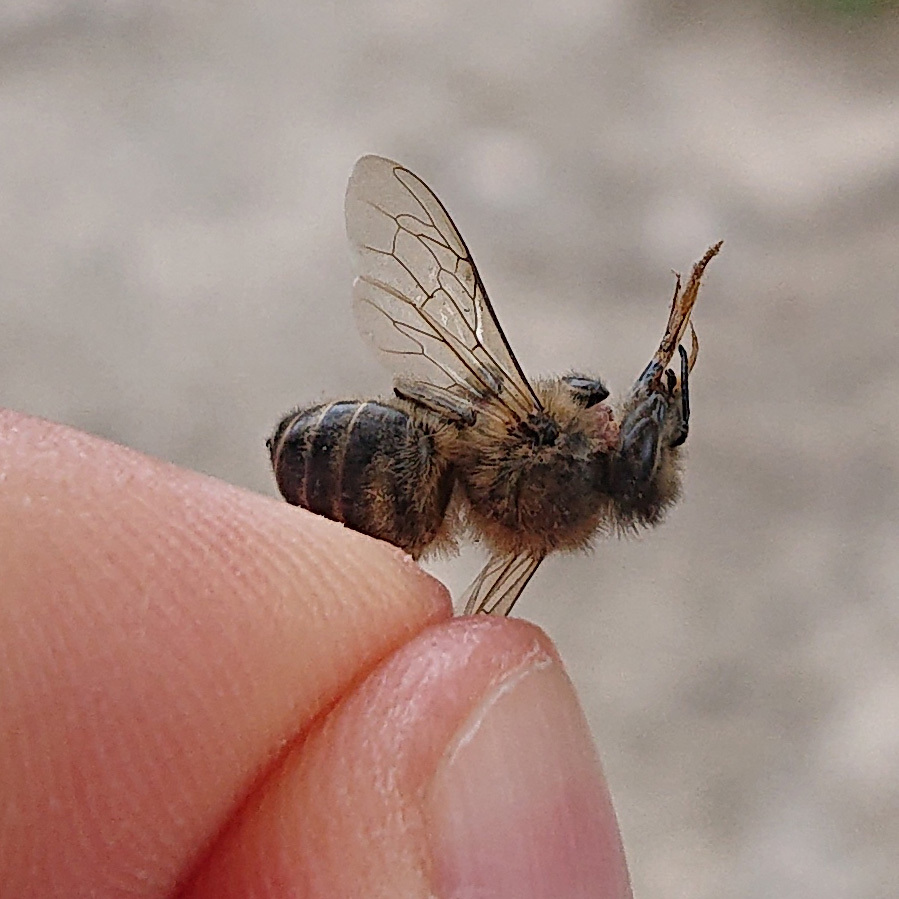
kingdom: Animalia
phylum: Arthropoda
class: Insecta
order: Hymenoptera
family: Apidae
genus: Apis
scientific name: Apis mellifera
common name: Honey bee
